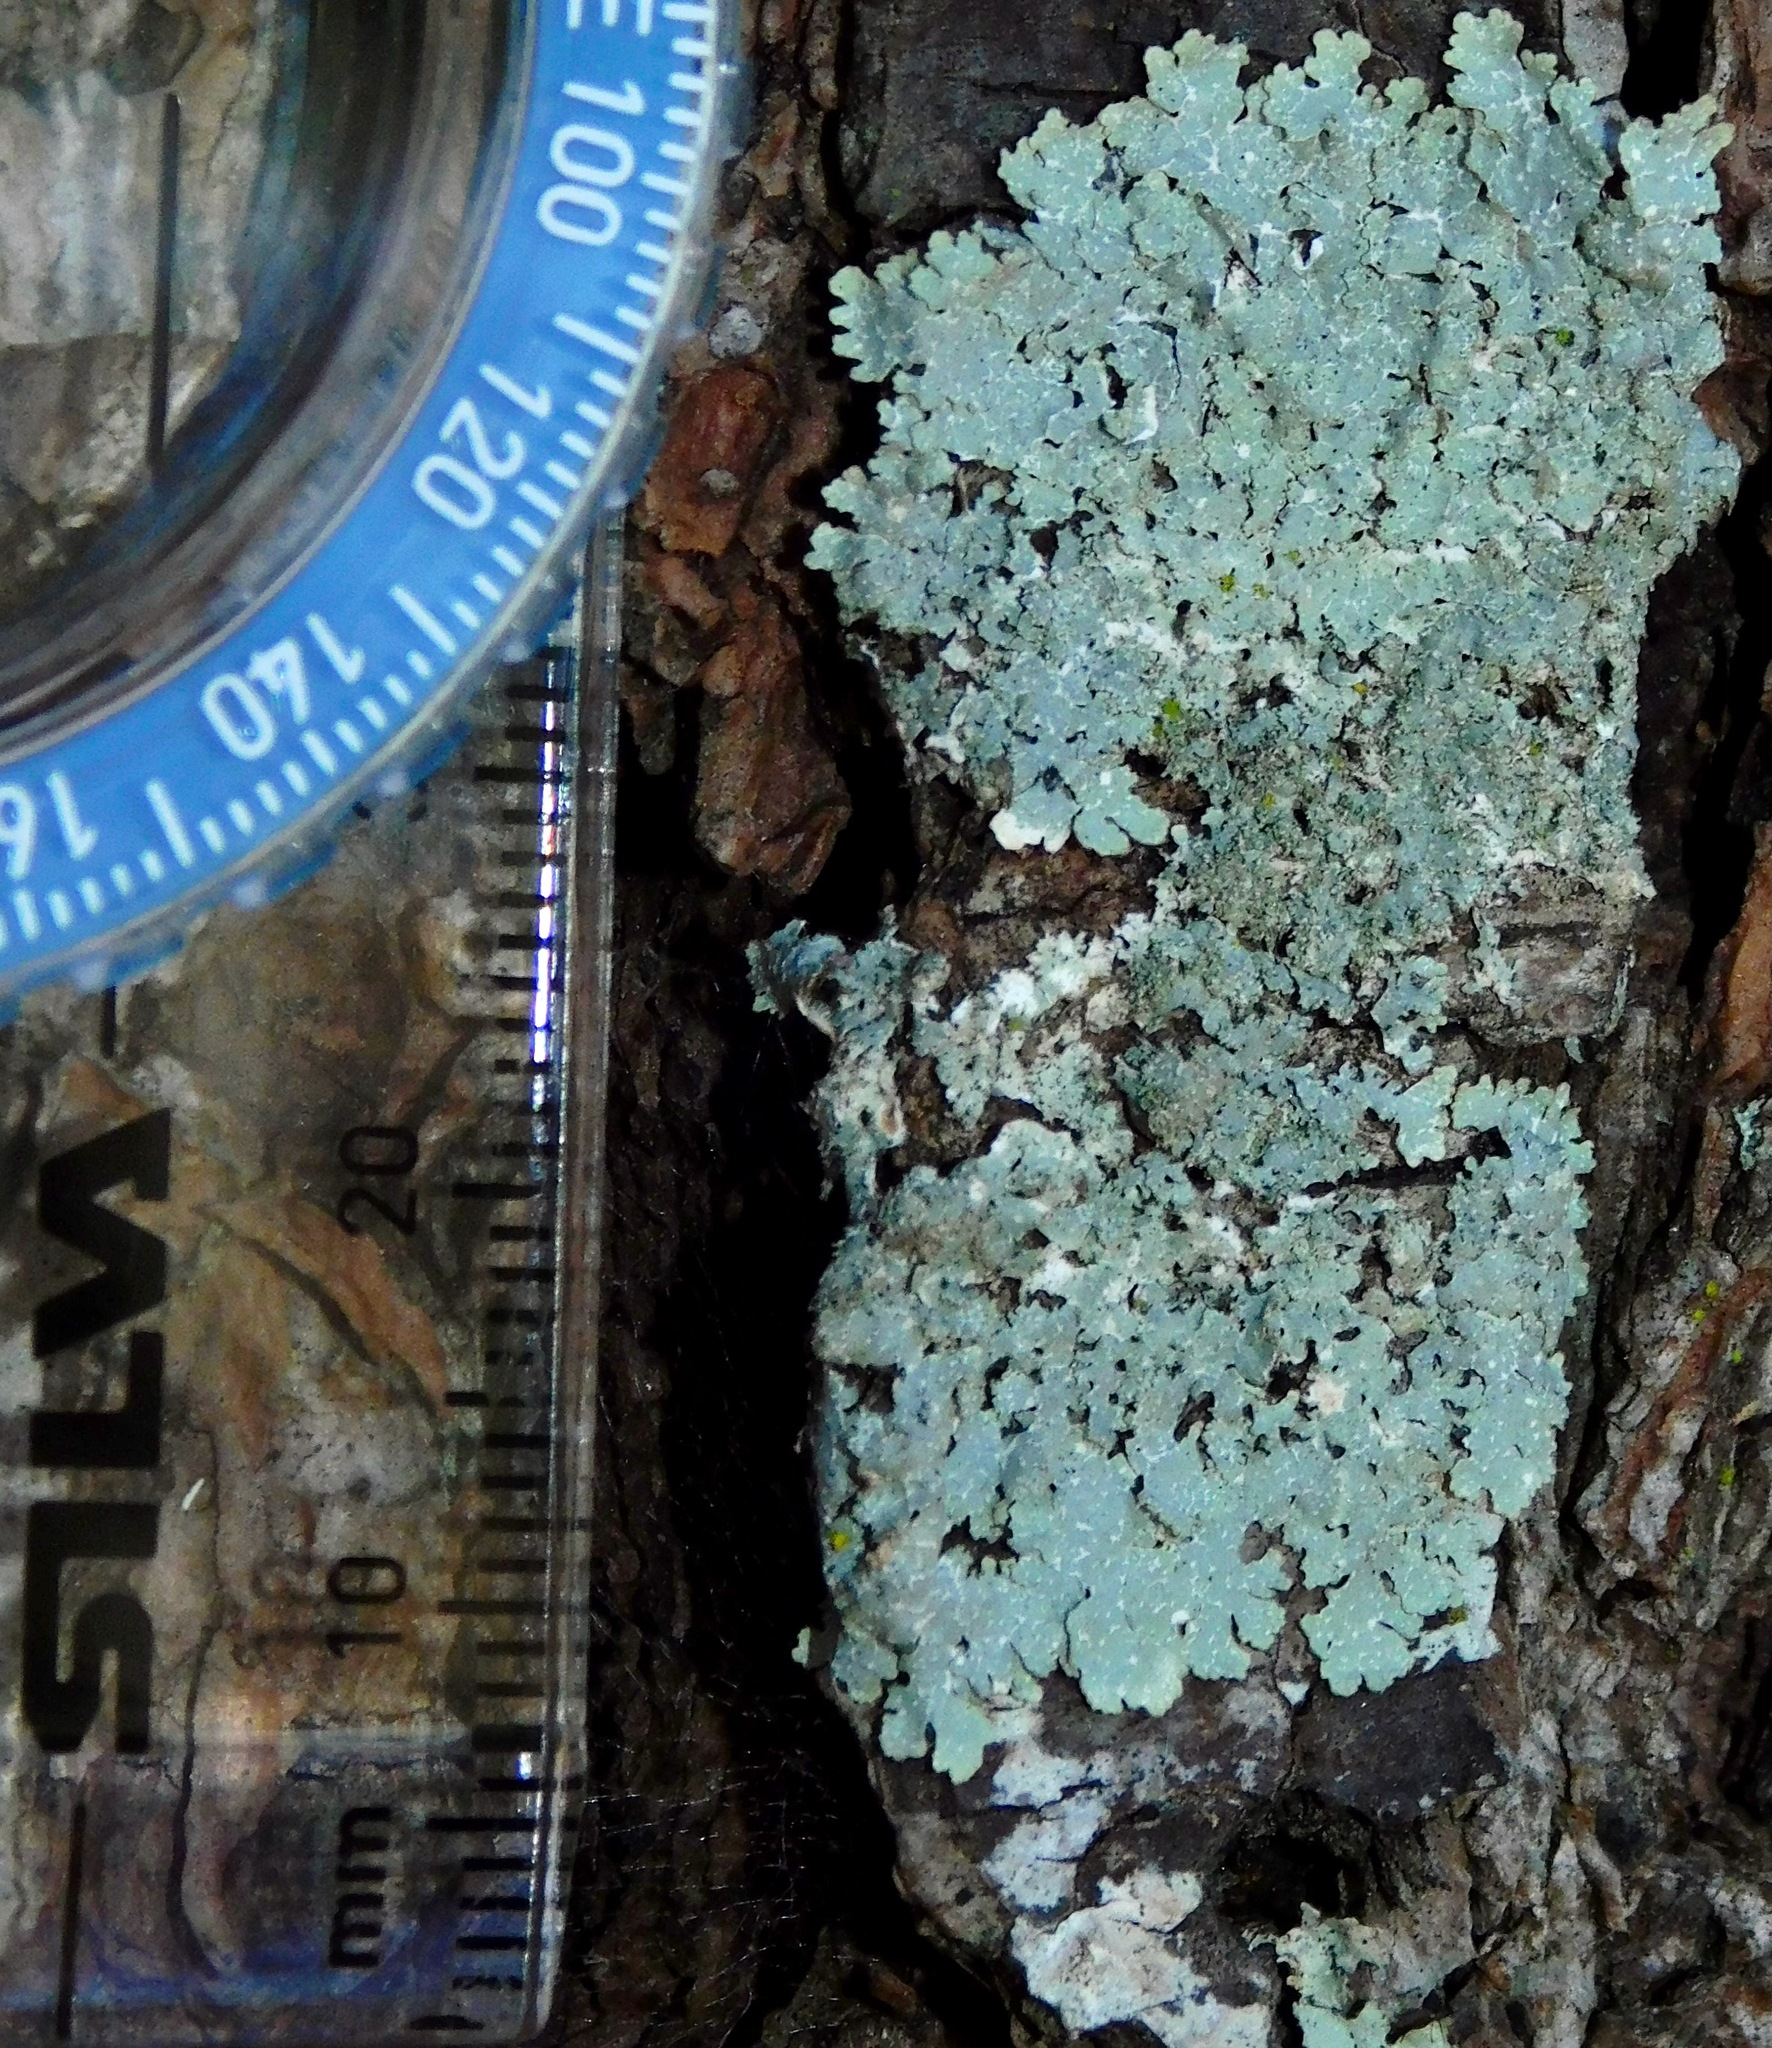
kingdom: Fungi
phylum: Ascomycota
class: Lecanoromycetes
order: Lecanorales
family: Parmeliaceae
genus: Punctelia
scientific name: Punctelia rudecta
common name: Rough speckled shield lichen
